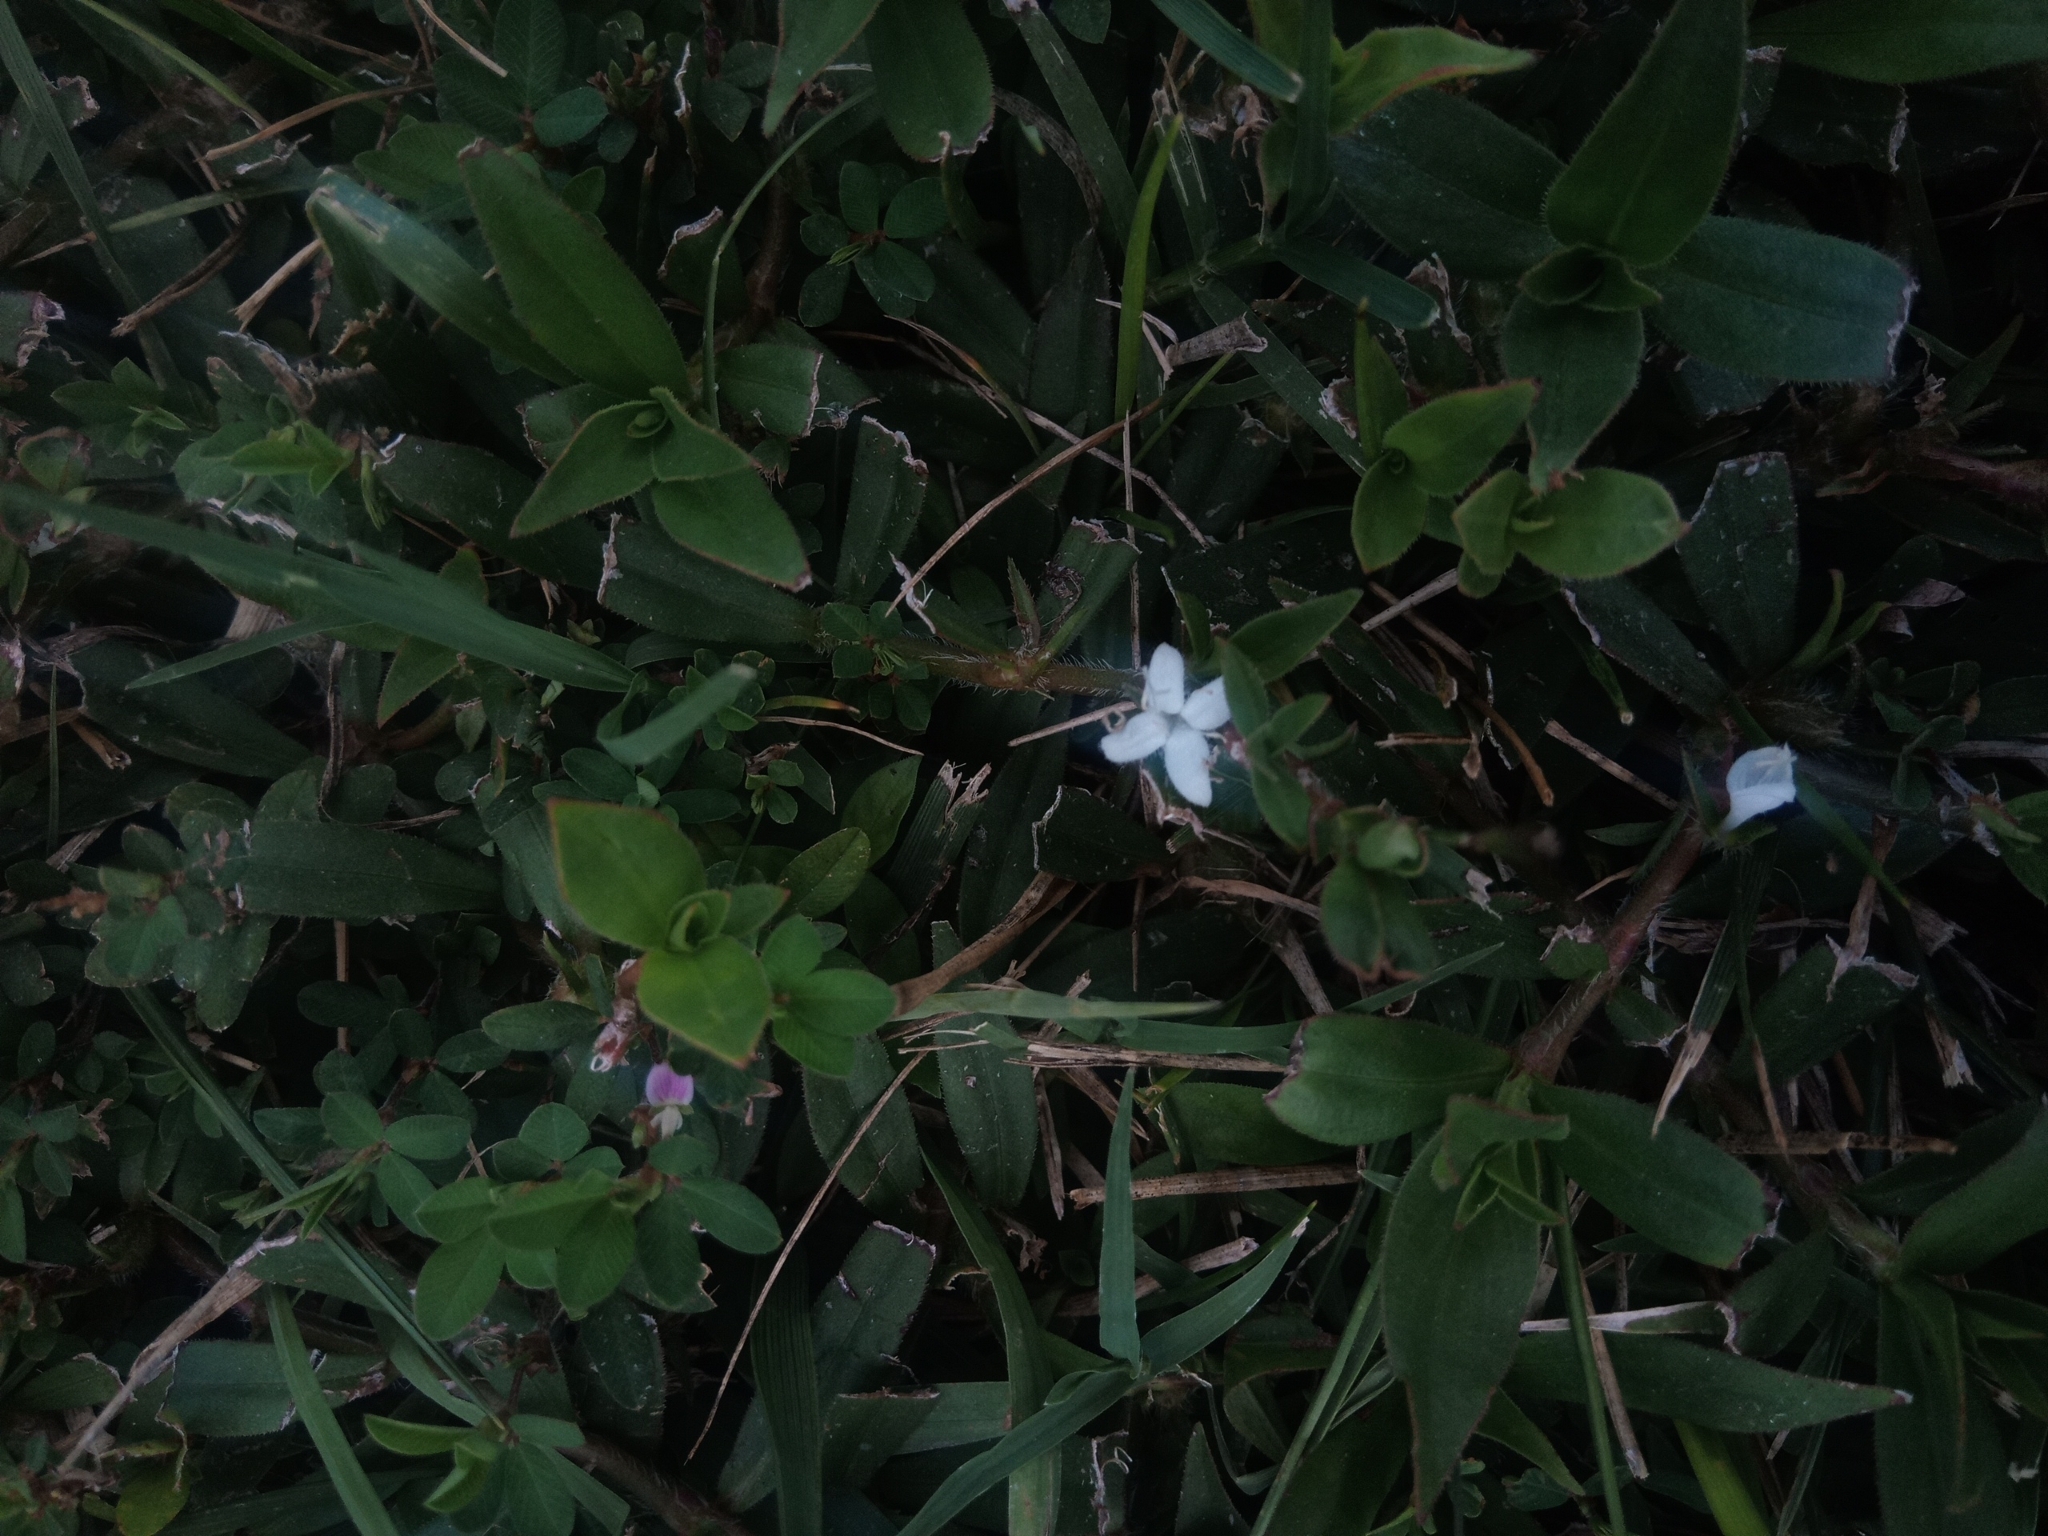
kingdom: Plantae
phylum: Tracheophyta
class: Magnoliopsida
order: Gentianales
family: Rubiaceae
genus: Diodia
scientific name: Diodia virginiana
